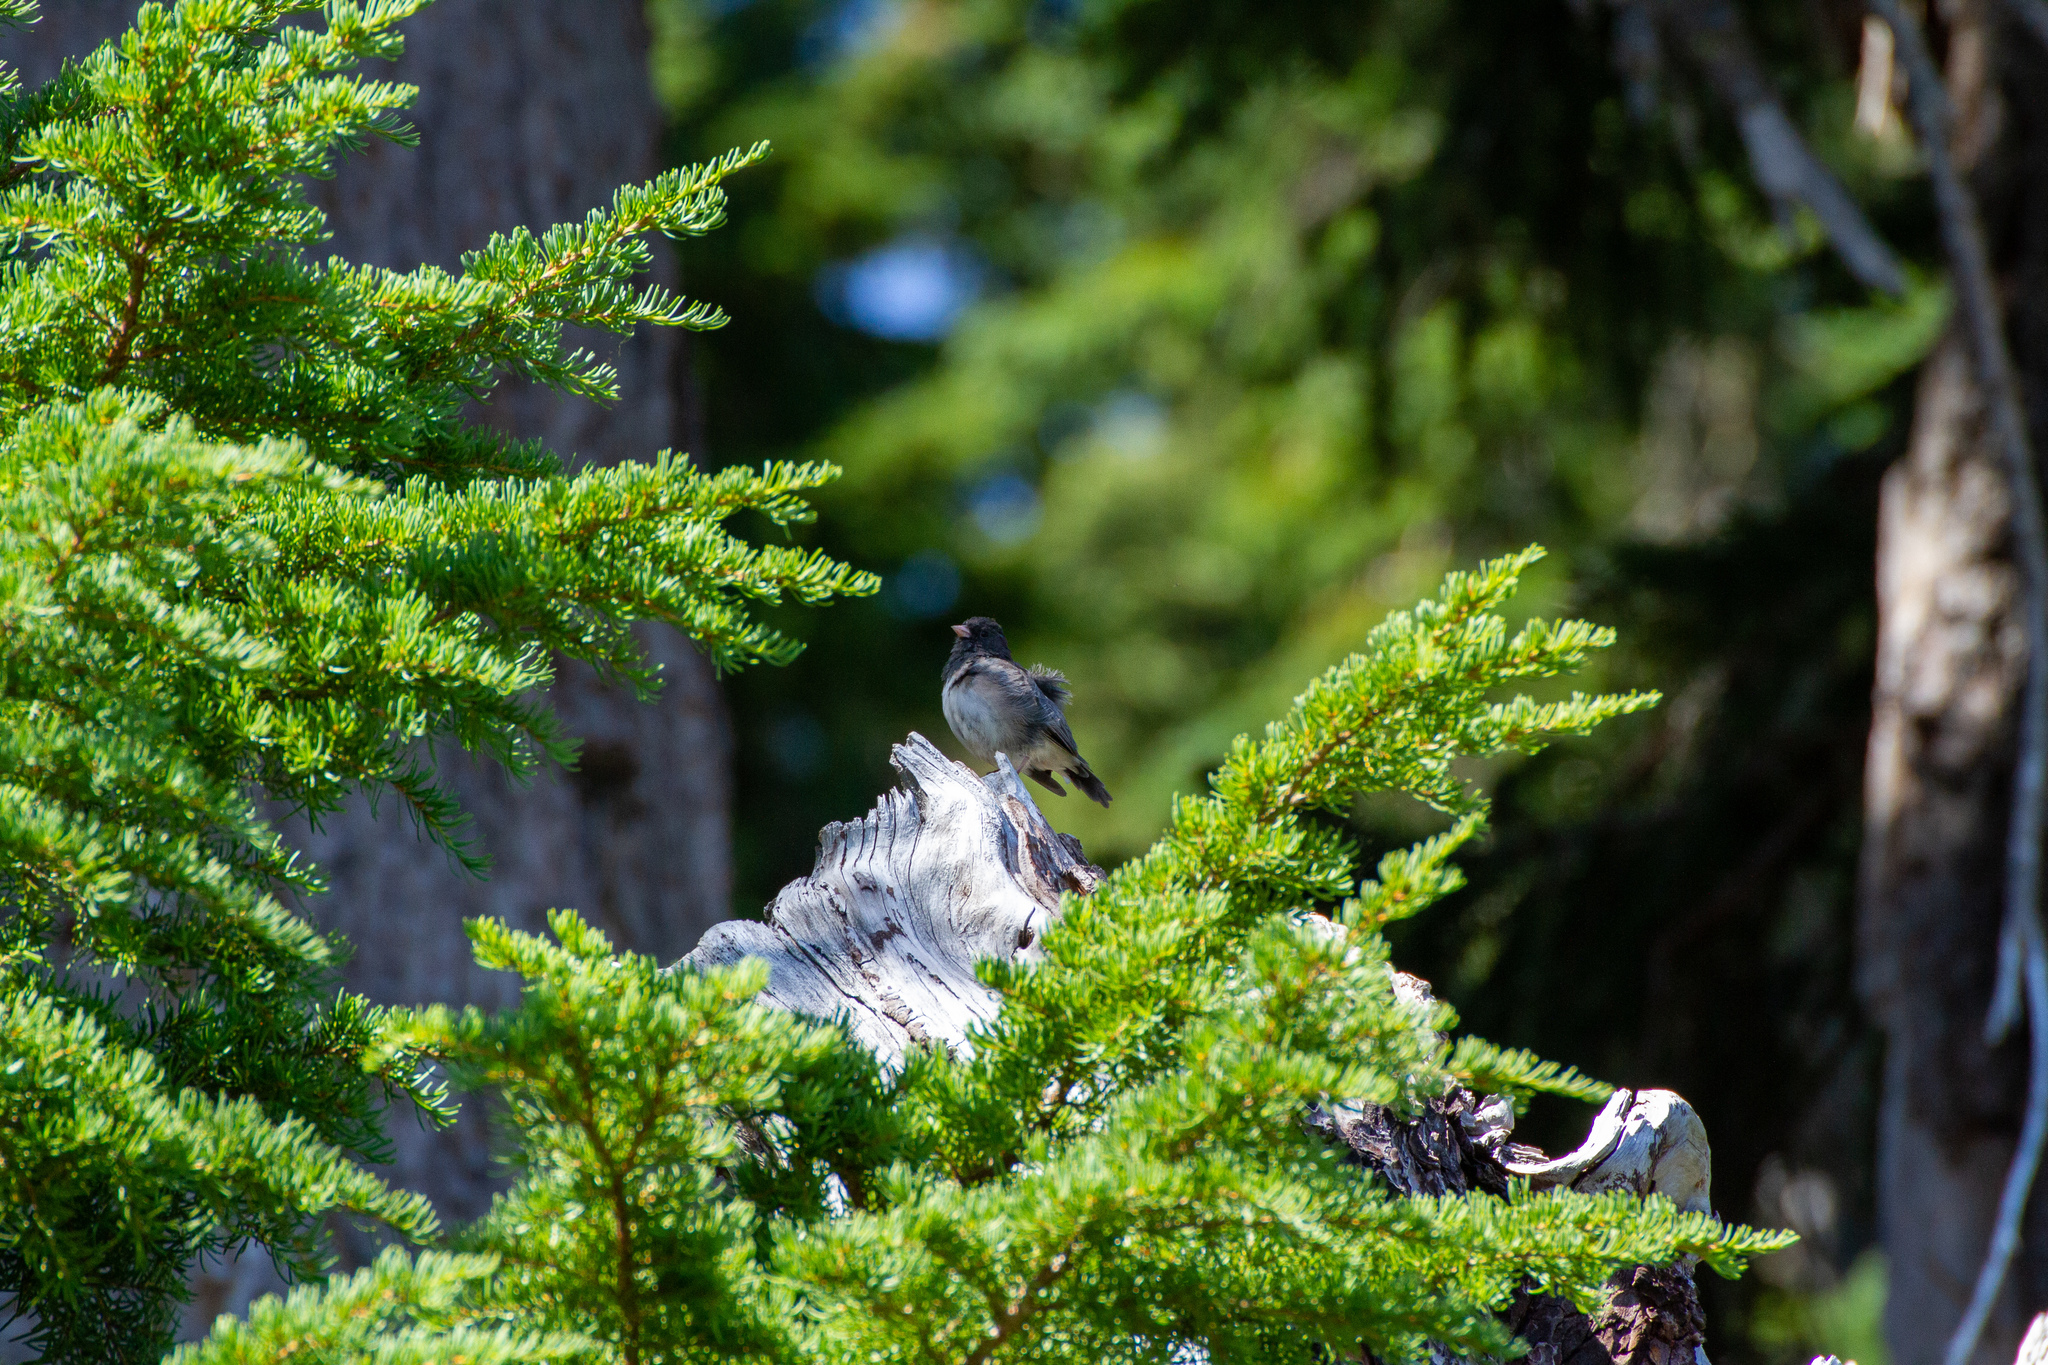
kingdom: Animalia
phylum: Chordata
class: Aves
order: Passeriformes
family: Passerellidae
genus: Junco
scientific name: Junco hyemalis
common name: Dark-eyed junco
